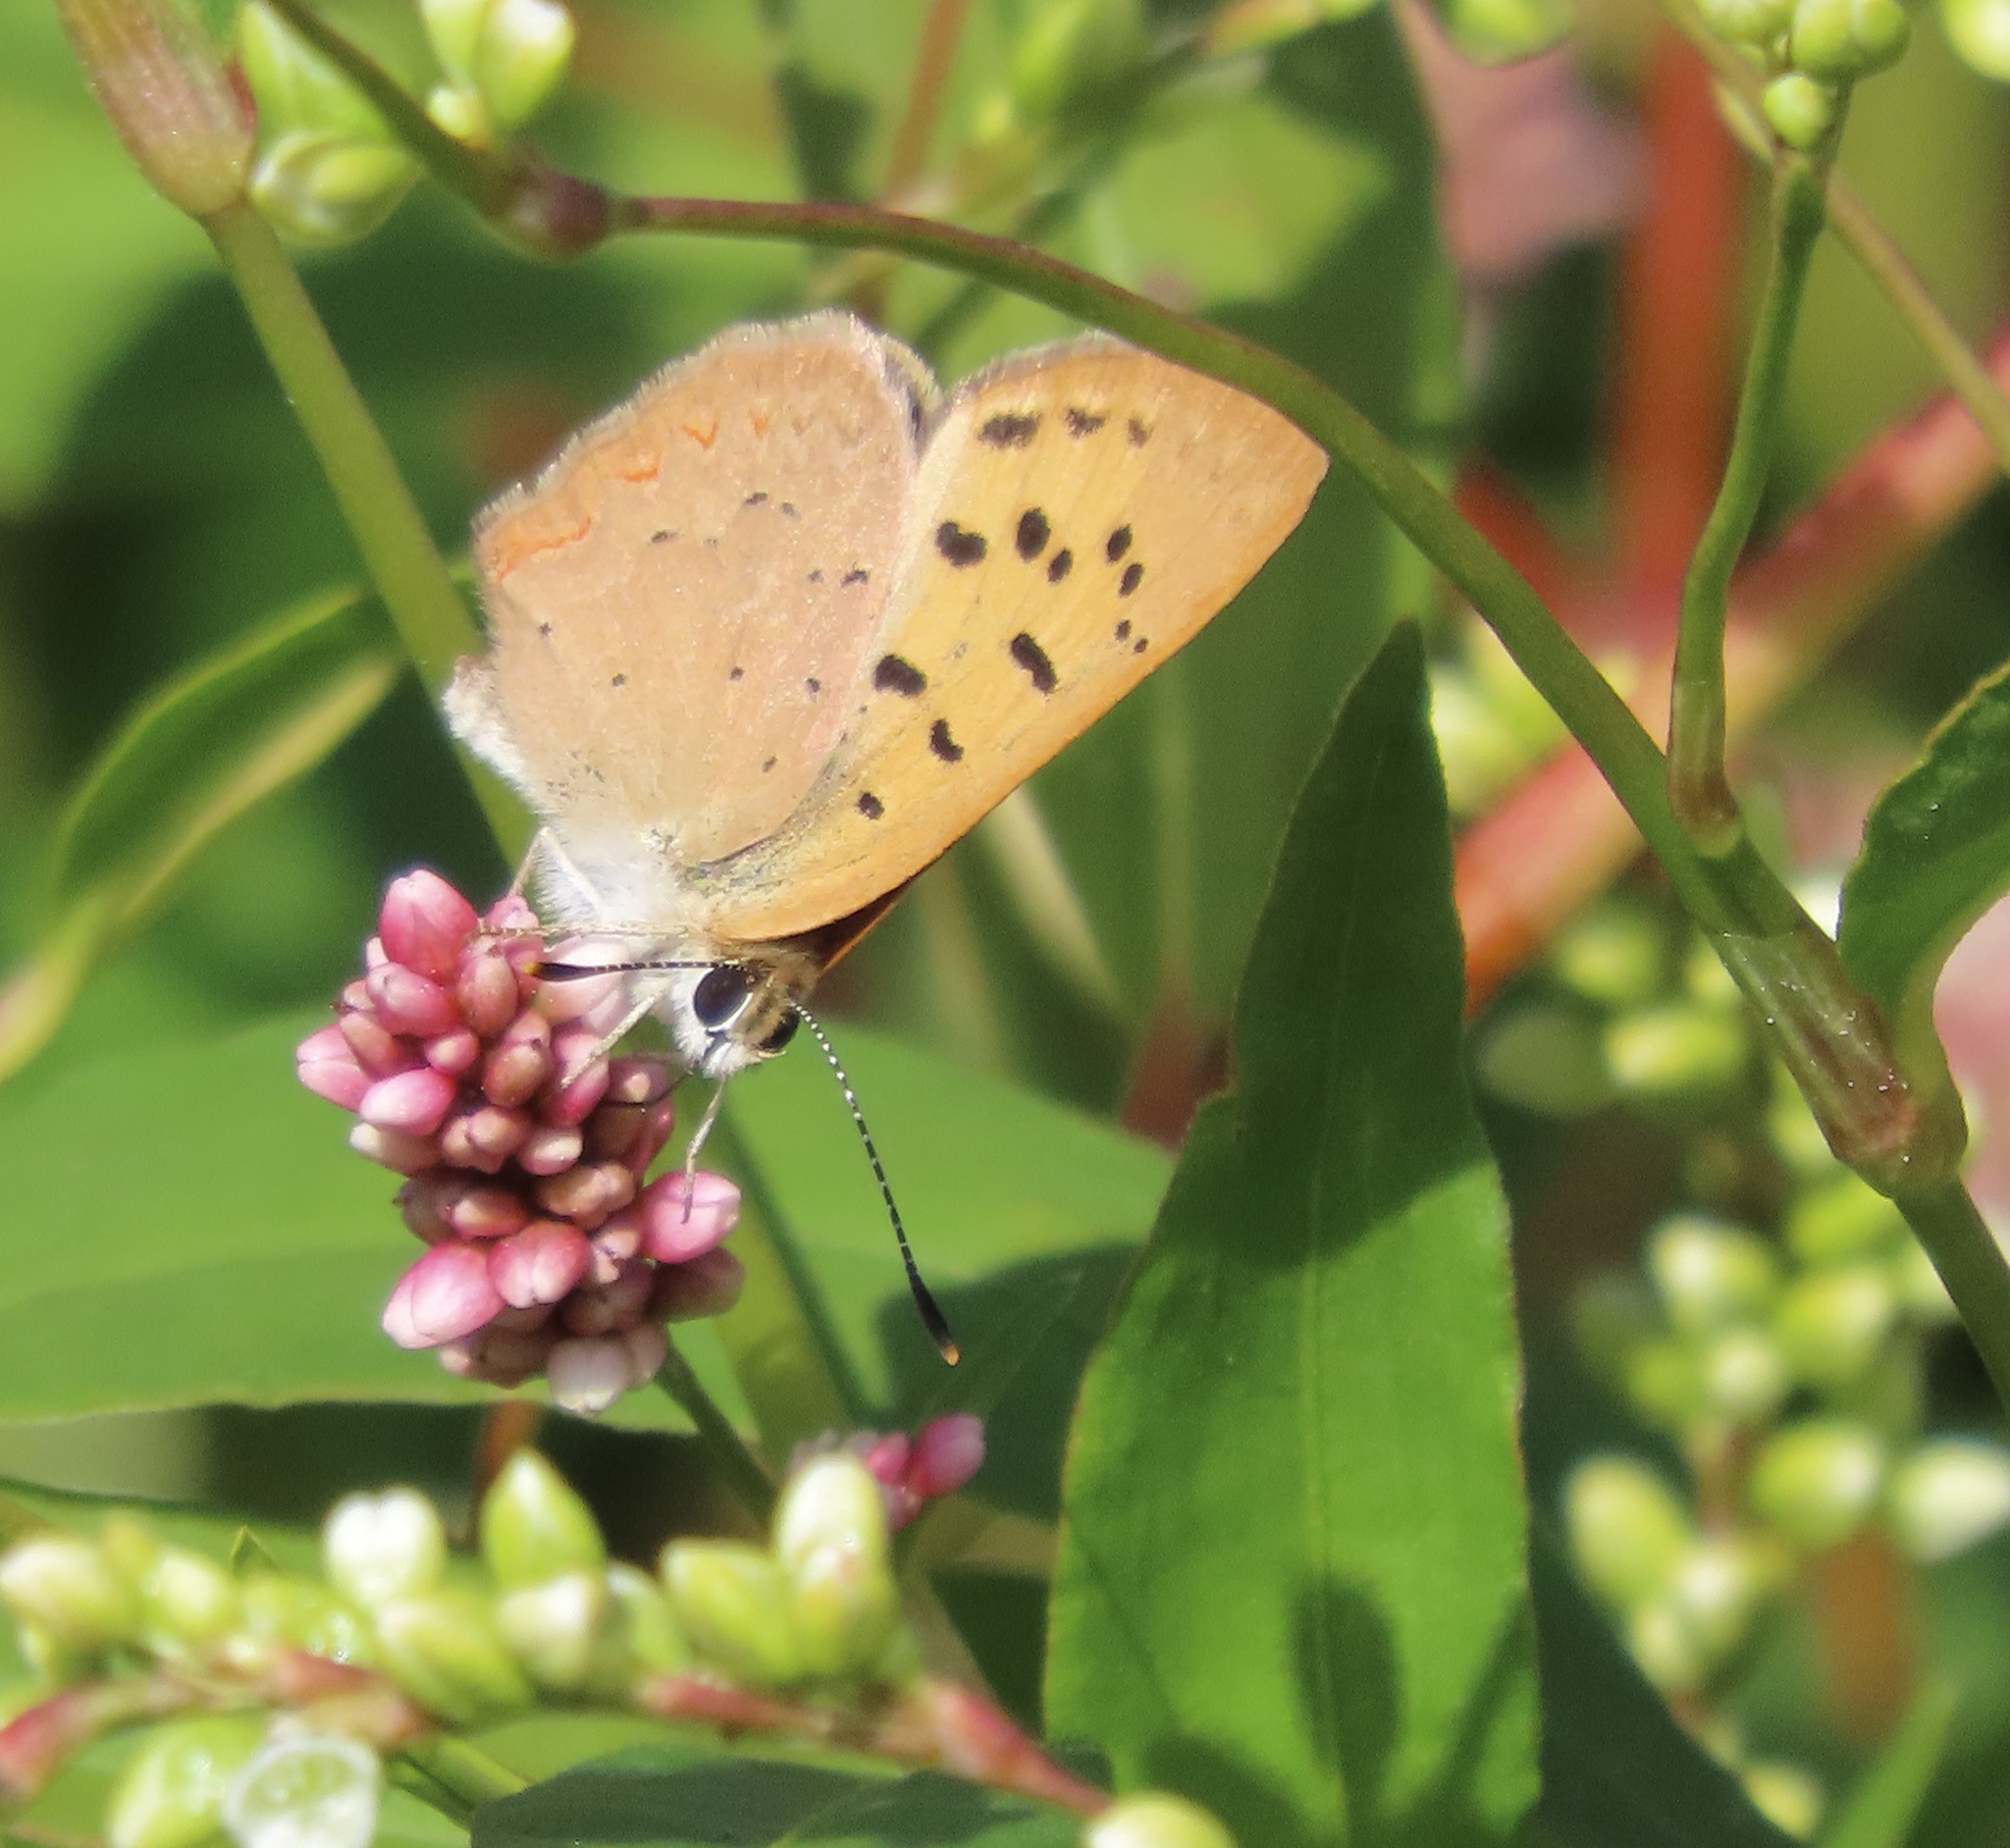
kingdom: Animalia
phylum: Arthropoda
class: Insecta
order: Lepidoptera
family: Lycaenidae
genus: Tharsalea
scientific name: Tharsalea helloides
